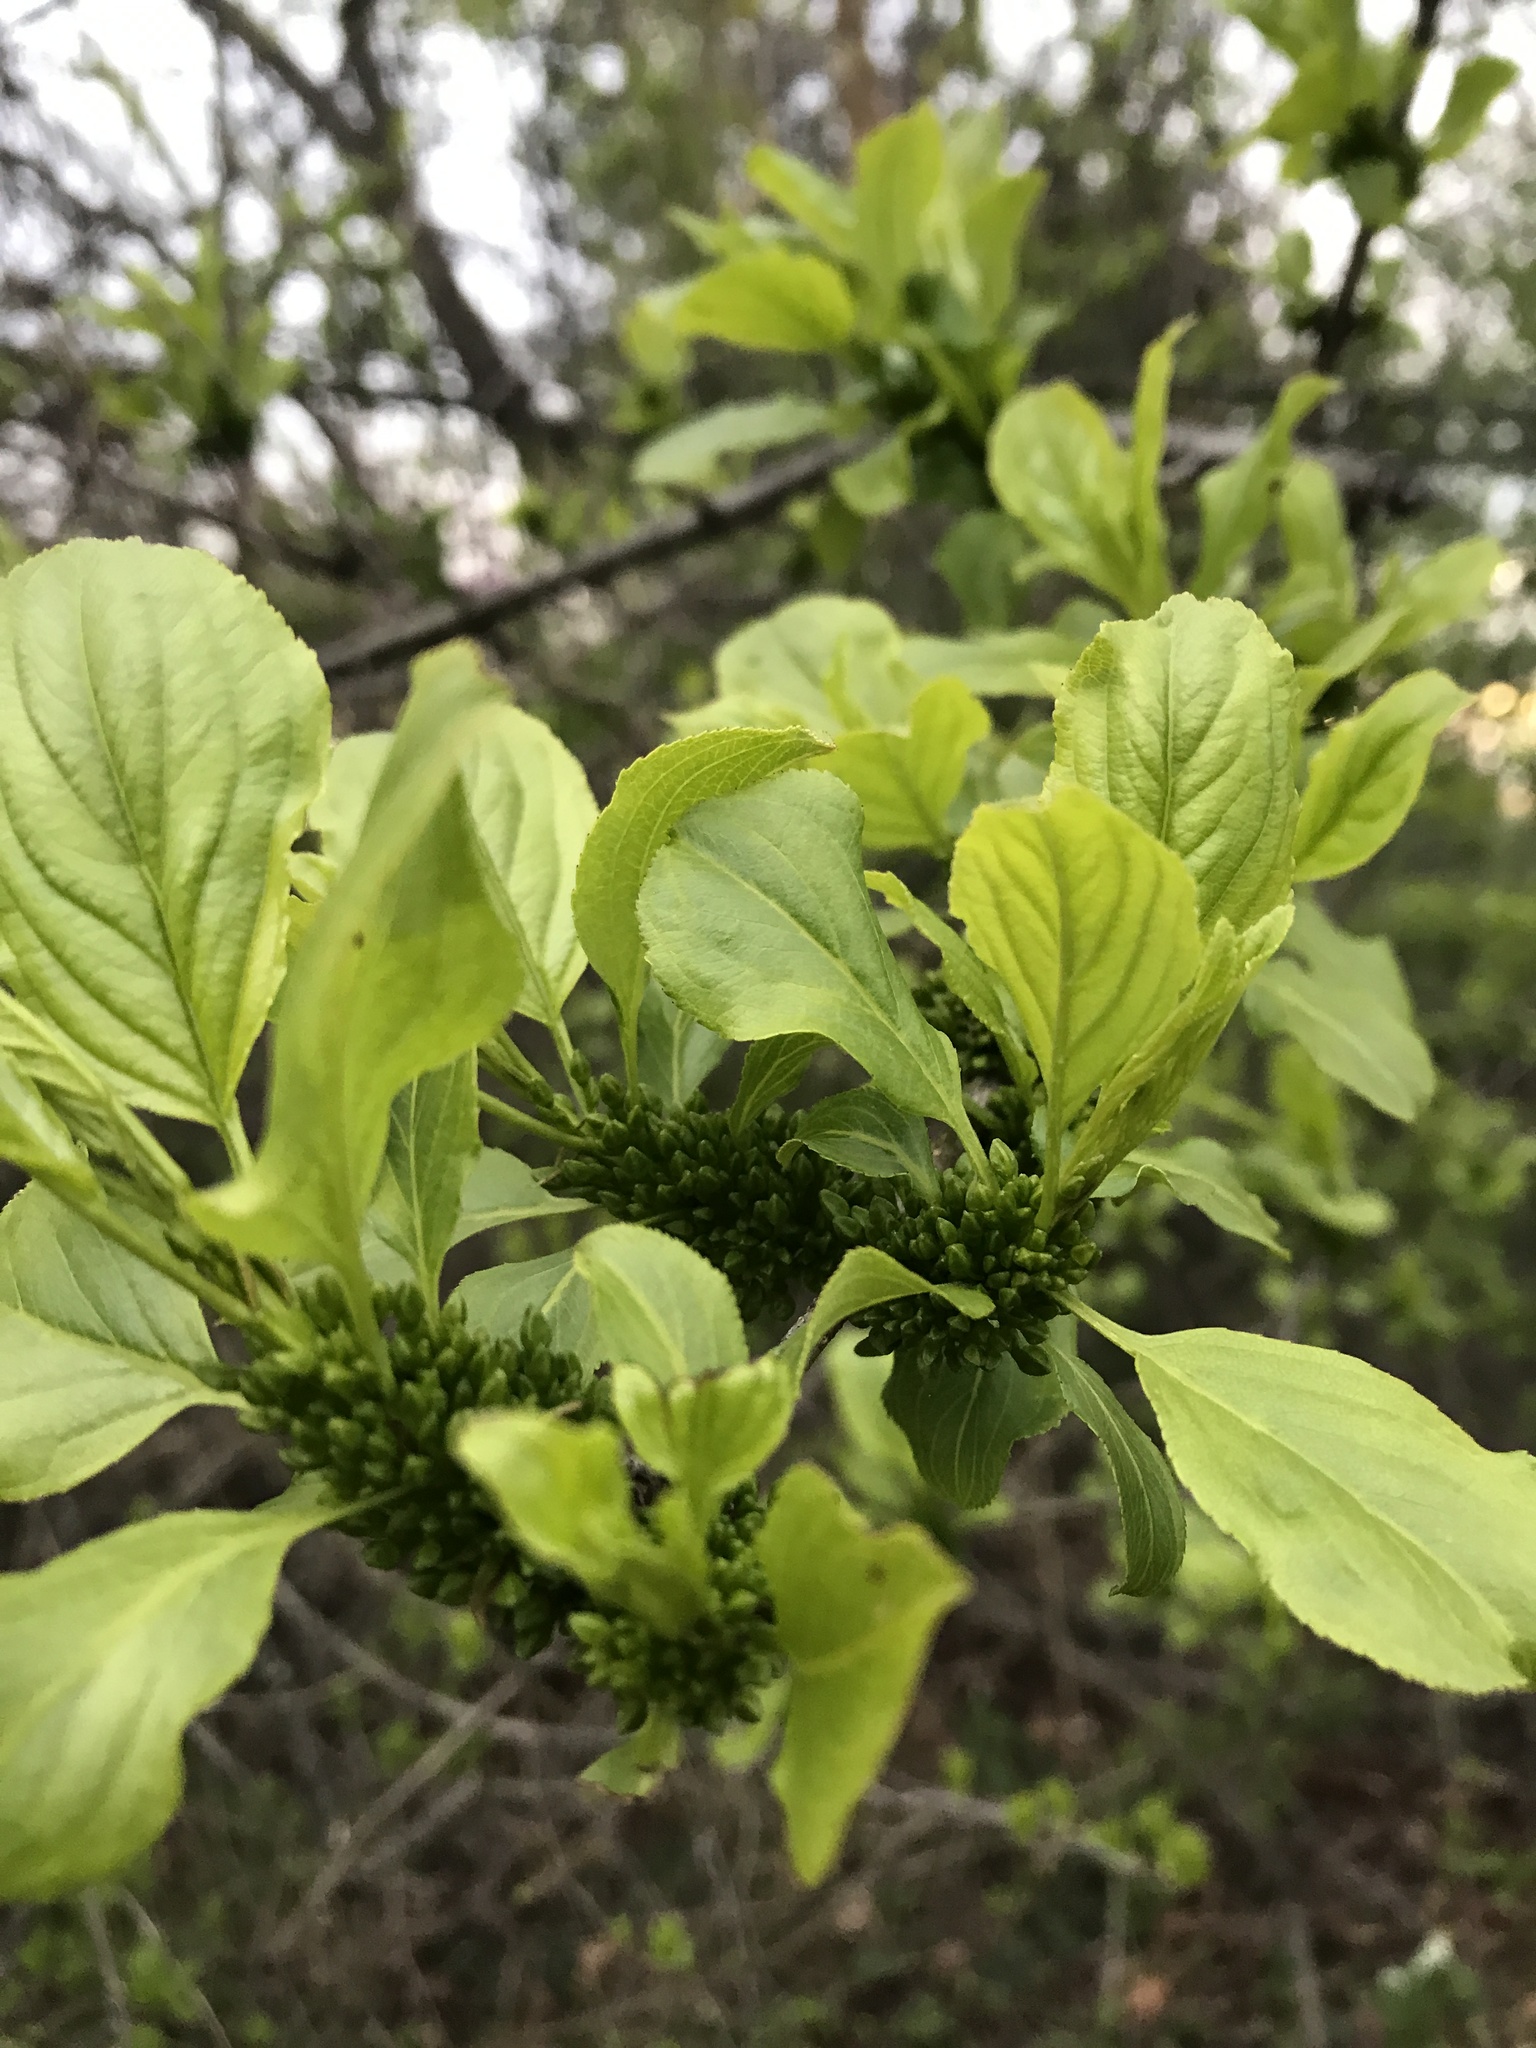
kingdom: Plantae
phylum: Tracheophyta
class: Magnoliopsida
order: Rosales
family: Rhamnaceae
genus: Rhamnus
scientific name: Rhamnus cathartica
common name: Common buckthorn
